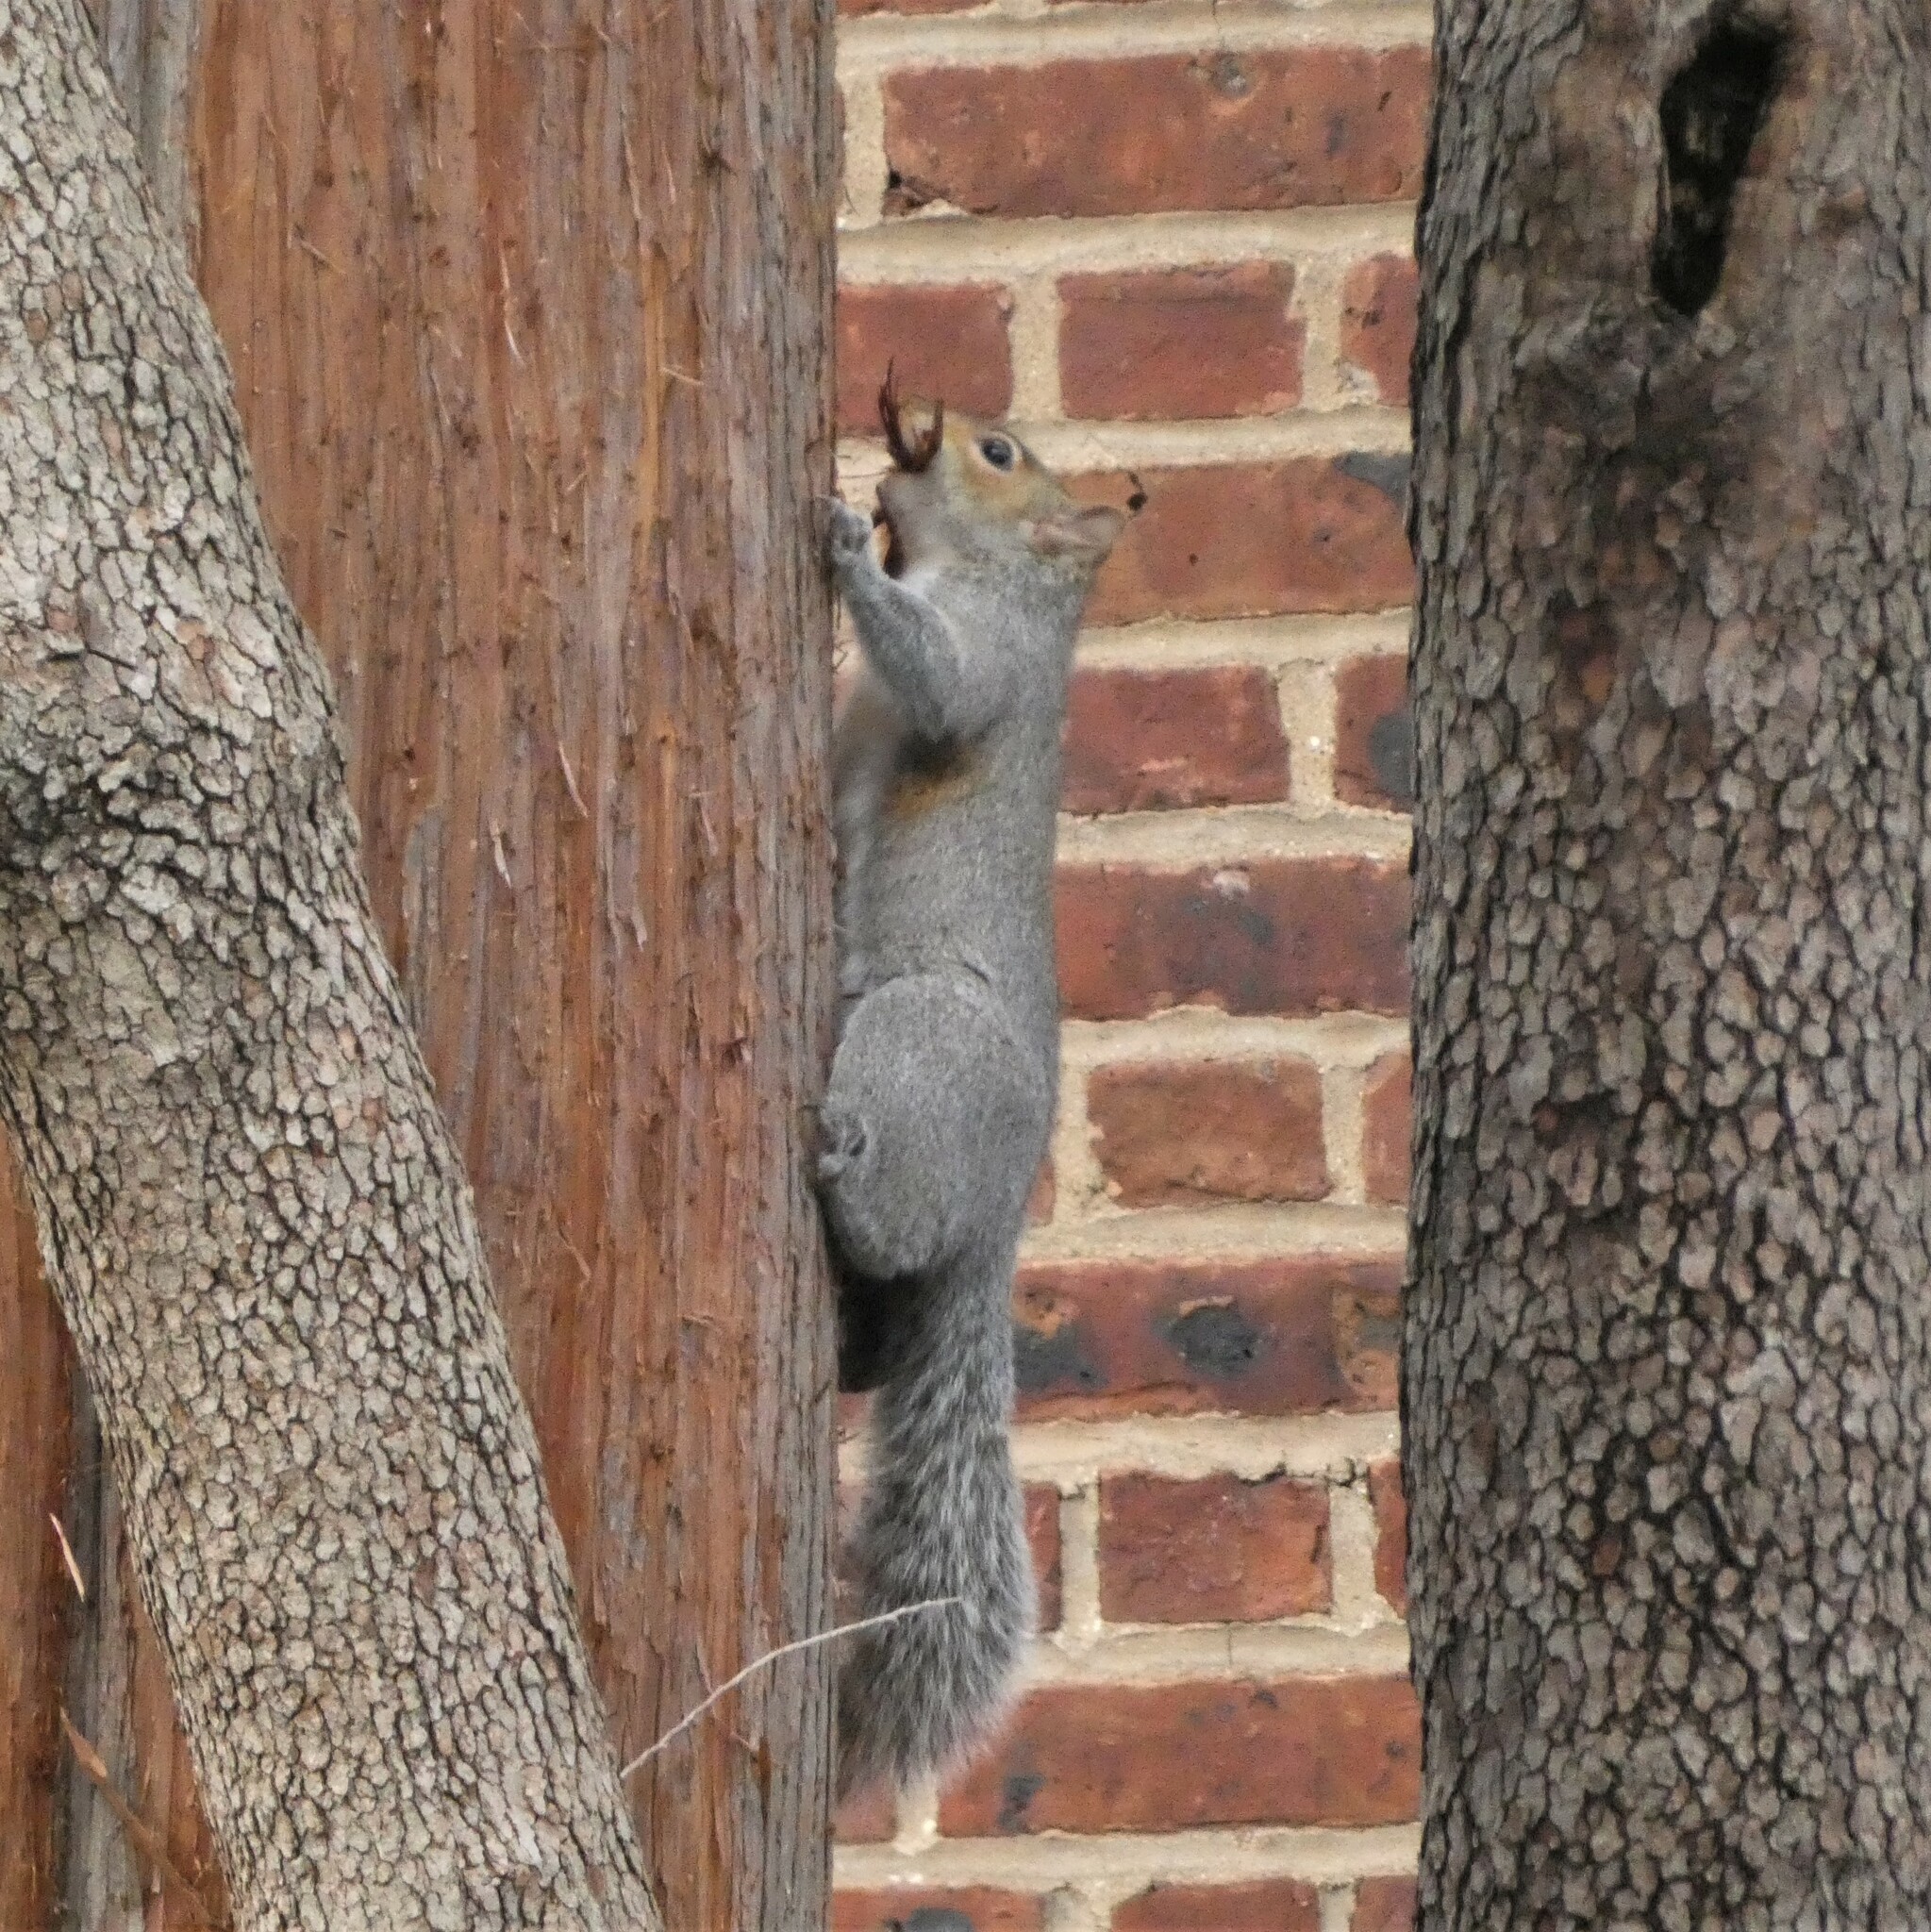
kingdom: Animalia
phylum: Chordata
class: Mammalia
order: Rodentia
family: Sciuridae
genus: Sciurus
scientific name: Sciurus carolinensis
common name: Eastern gray squirrel
